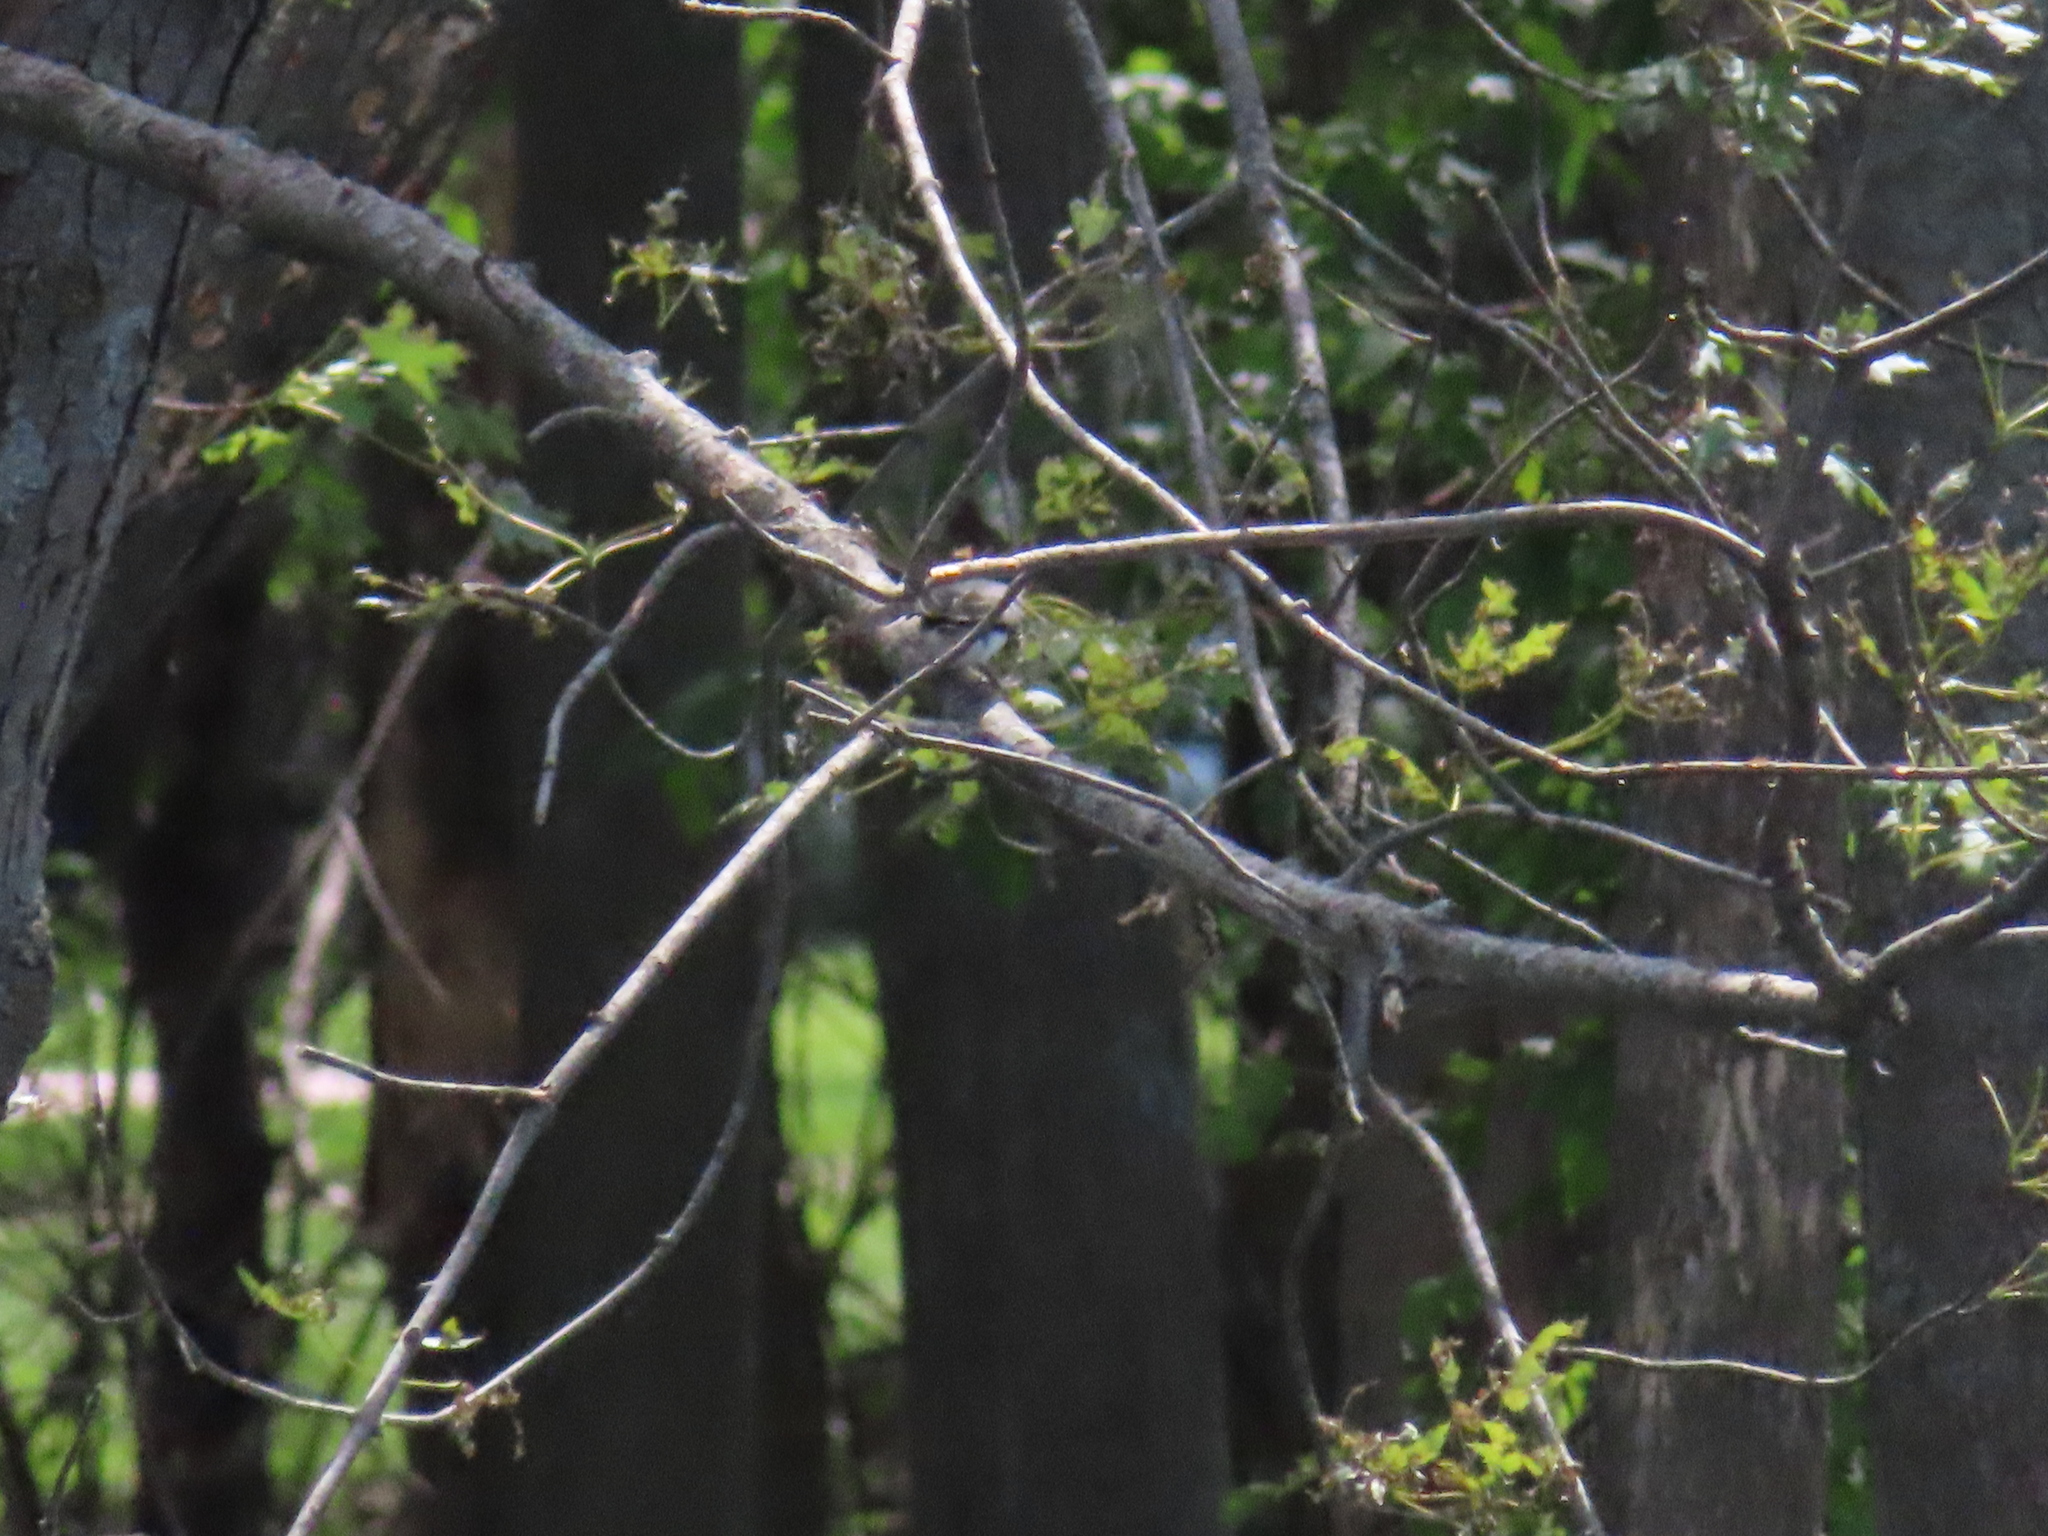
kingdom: Animalia
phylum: Chordata
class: Aves
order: Passeriformes
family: Tyrannidae
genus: Contopus
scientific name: Contopus virens
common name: Eastern wood-pewee
